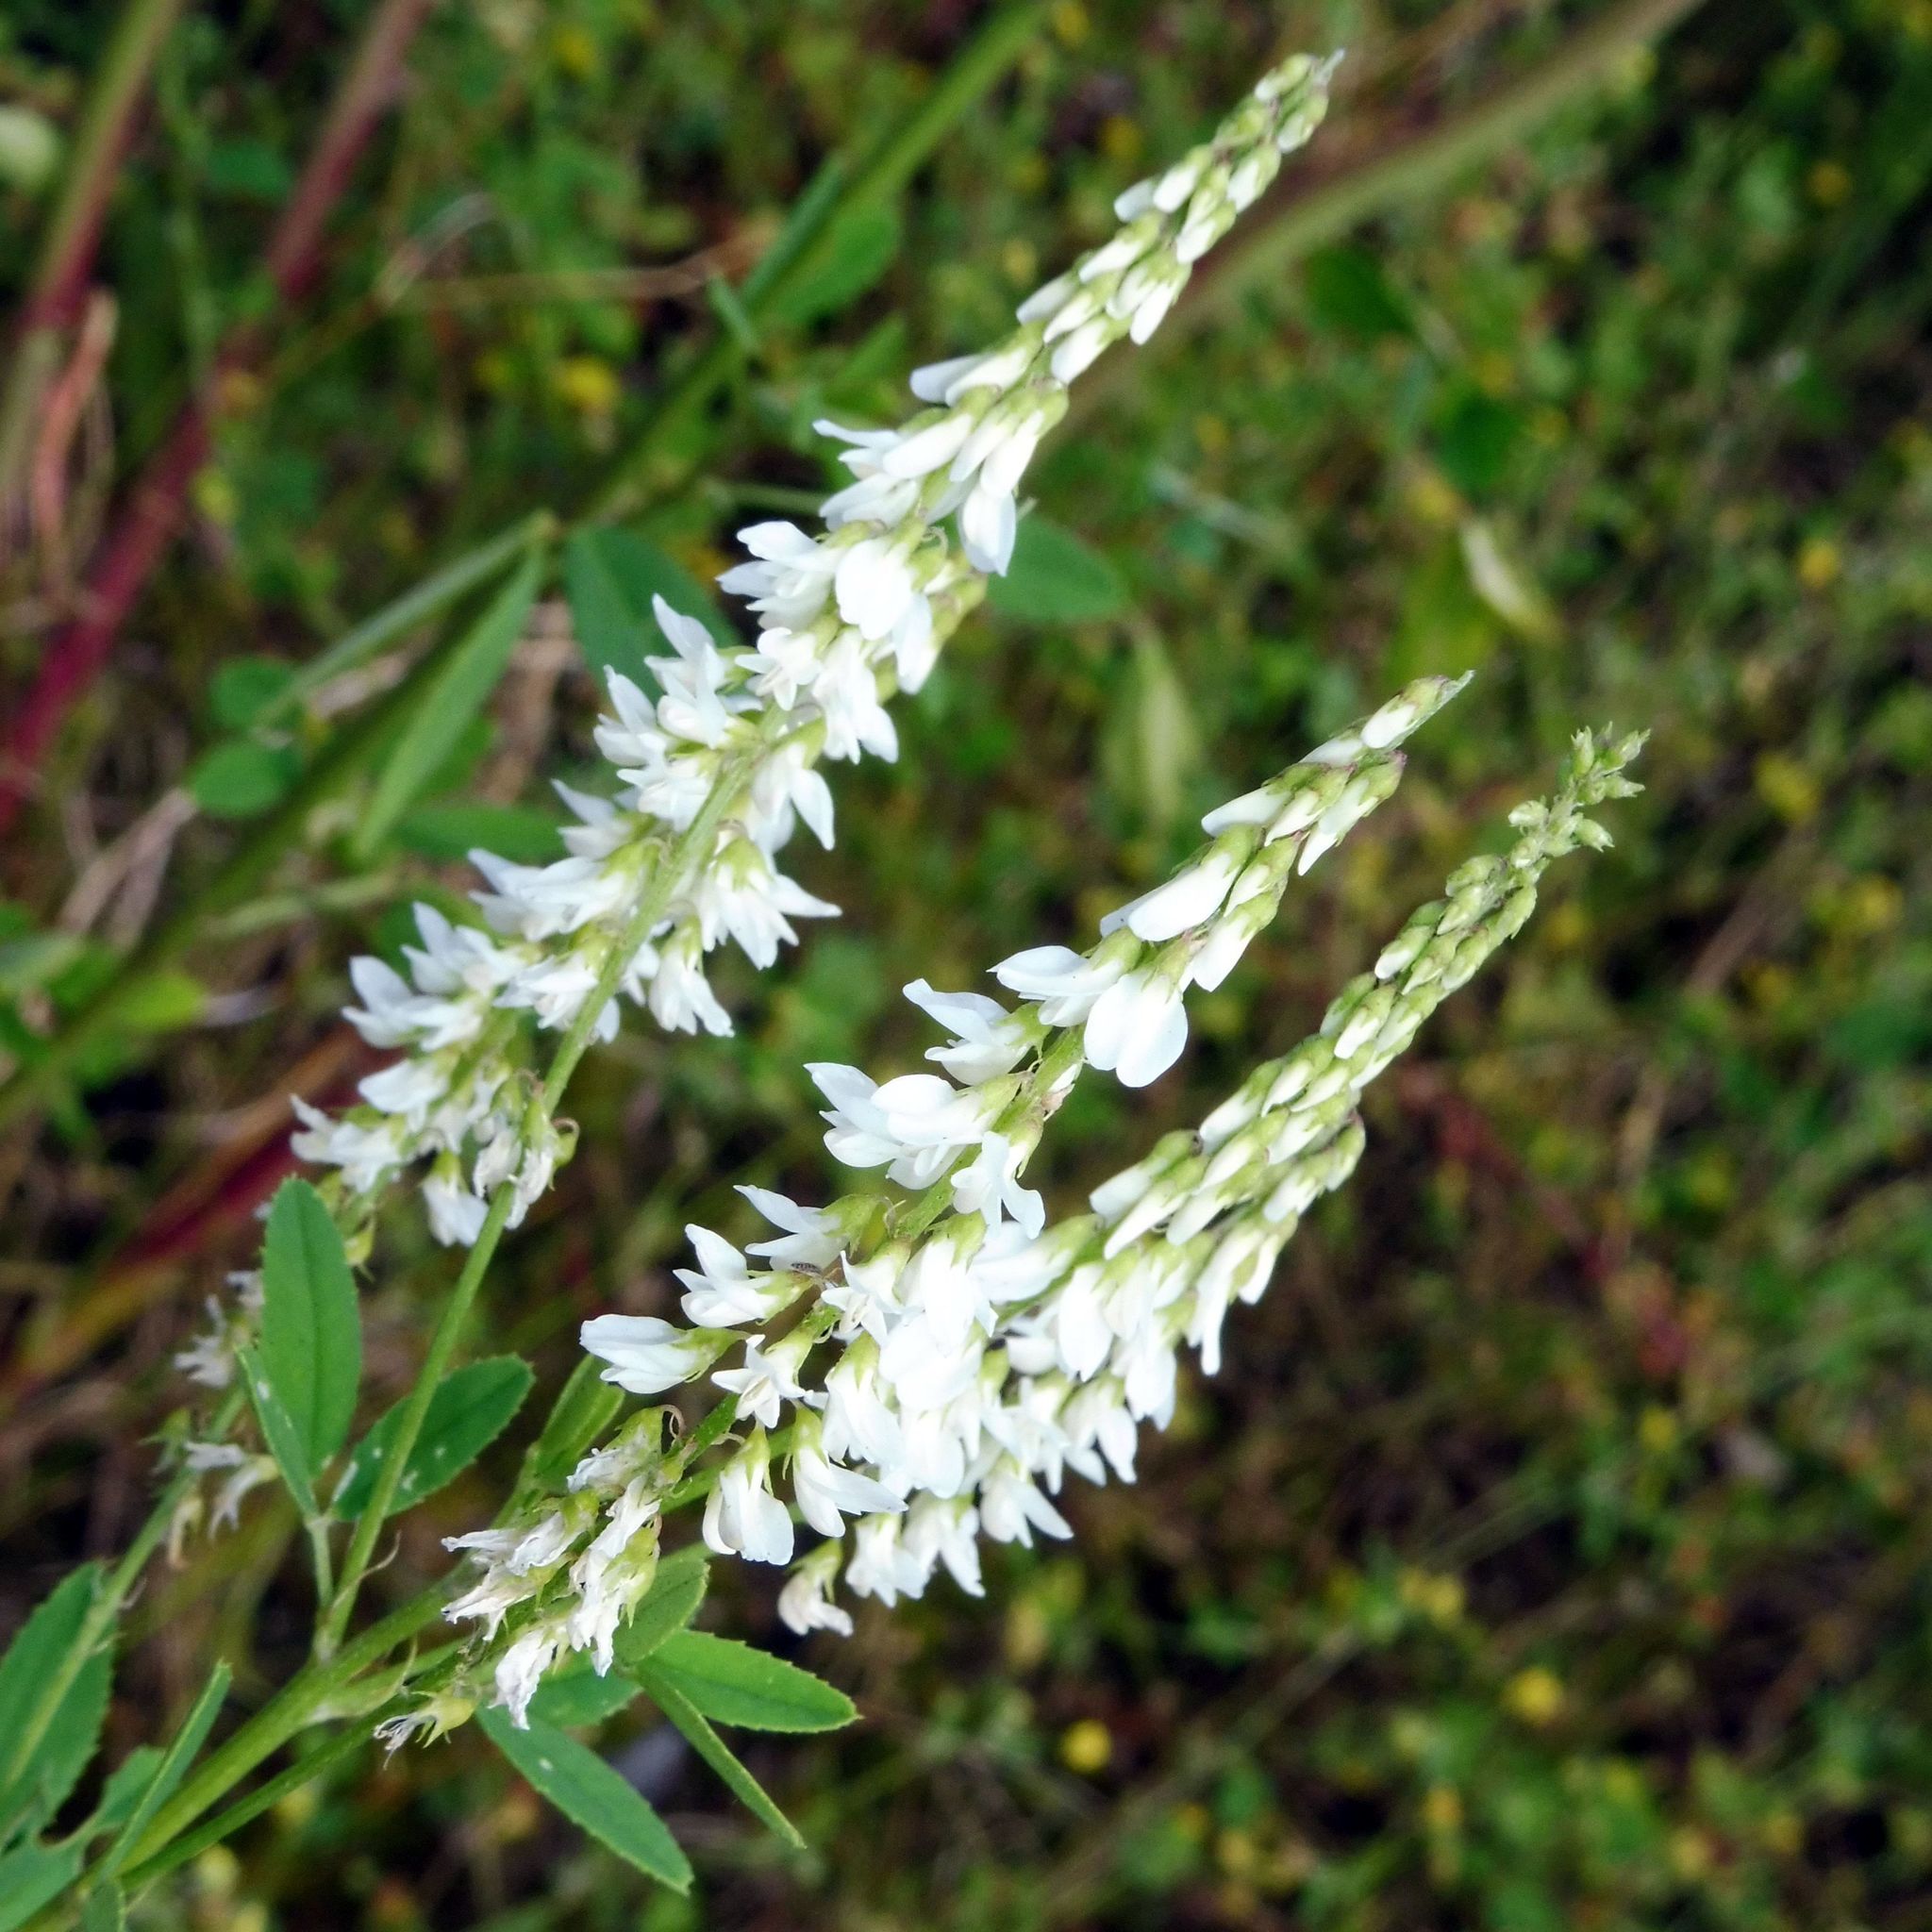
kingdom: Plantae
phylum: Tracheophyta
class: Magnoliopsida
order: Fabales
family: Fabaceae
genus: Melilotus
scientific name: Melilotus albus
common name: White melilot
